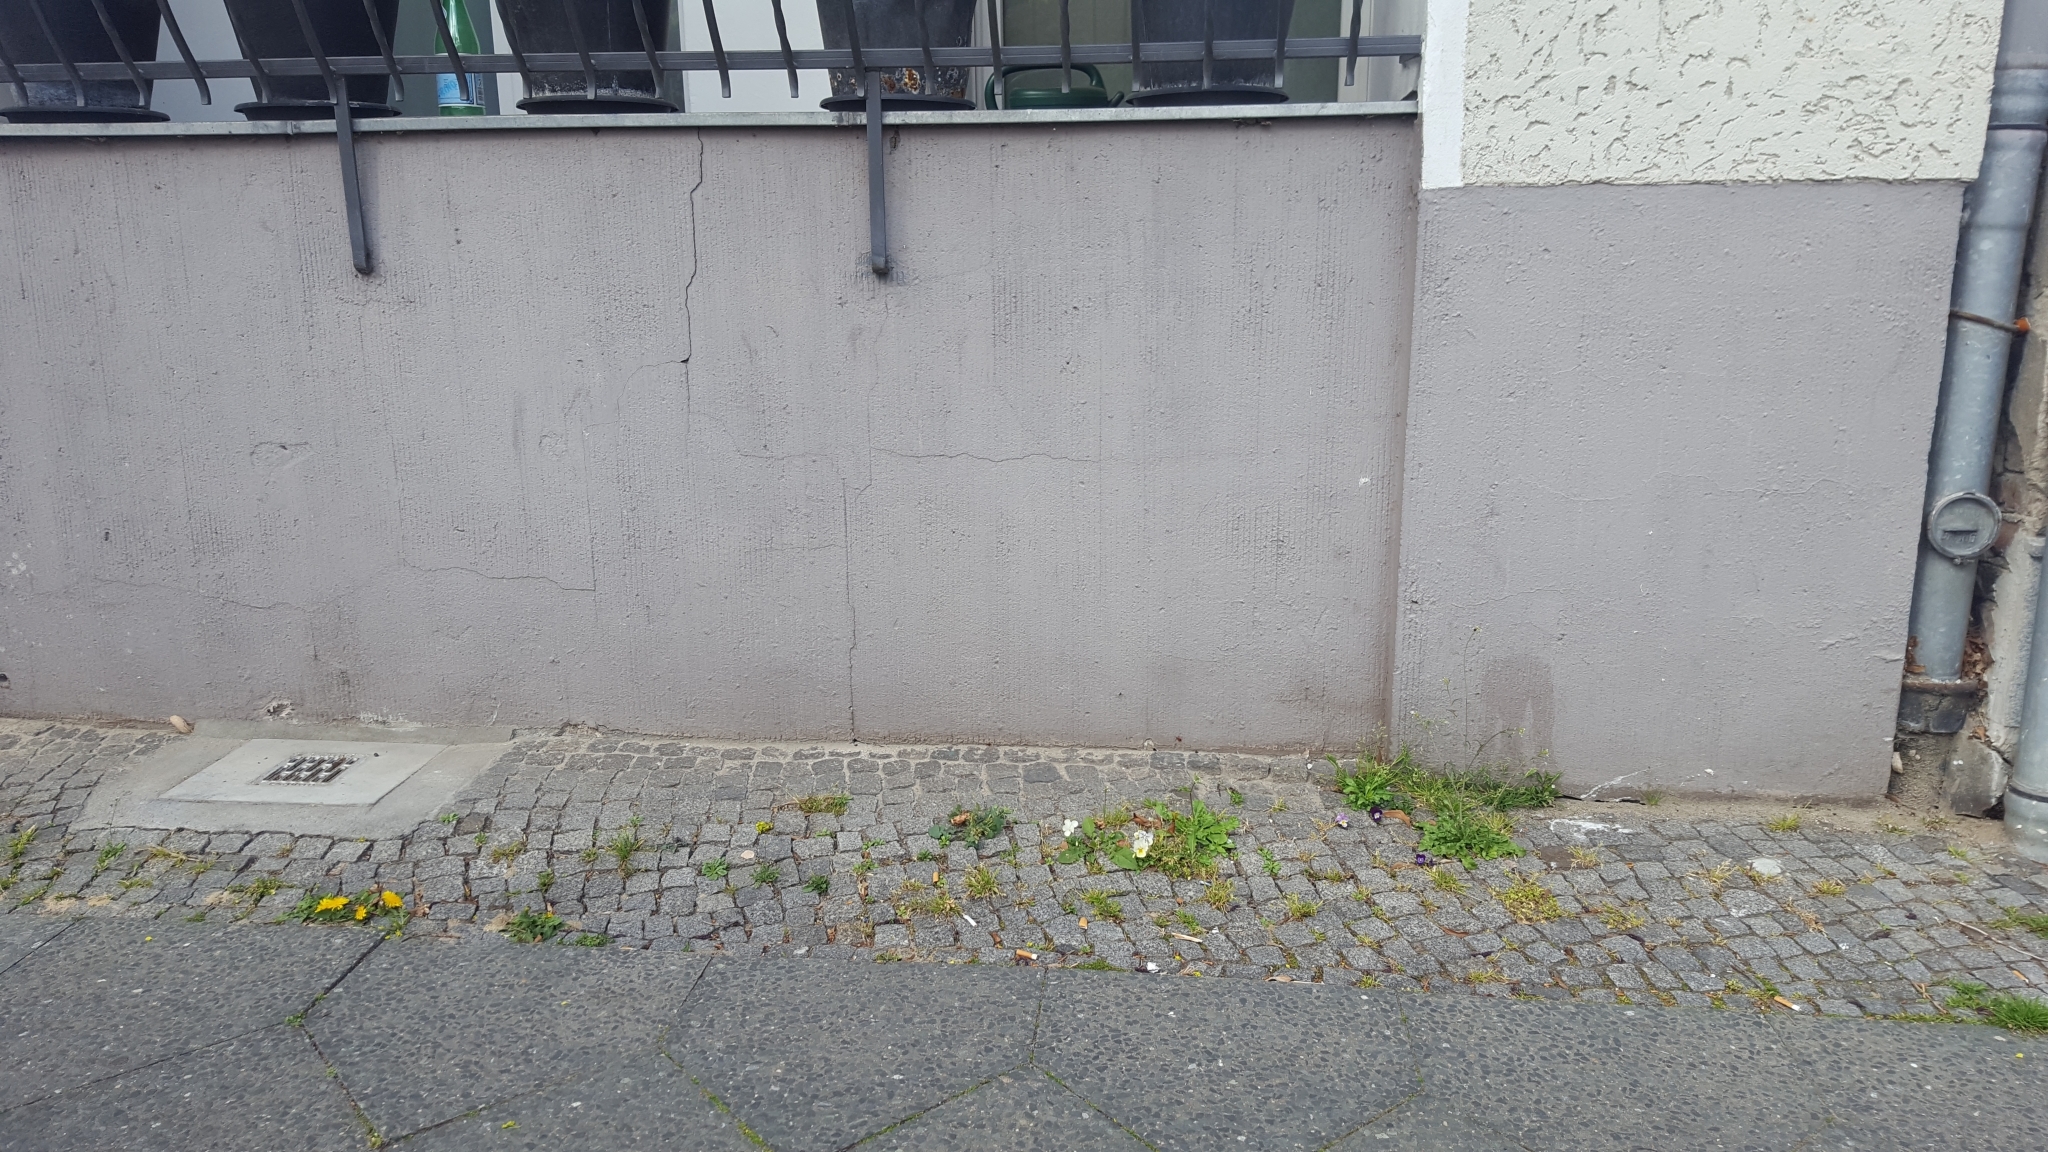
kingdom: Plantae
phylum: Tracheophyta
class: Magnoliopsida
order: Malpighiales
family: Violaceae
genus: Viola
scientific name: Viola wittrockiana
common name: Garden pansy
